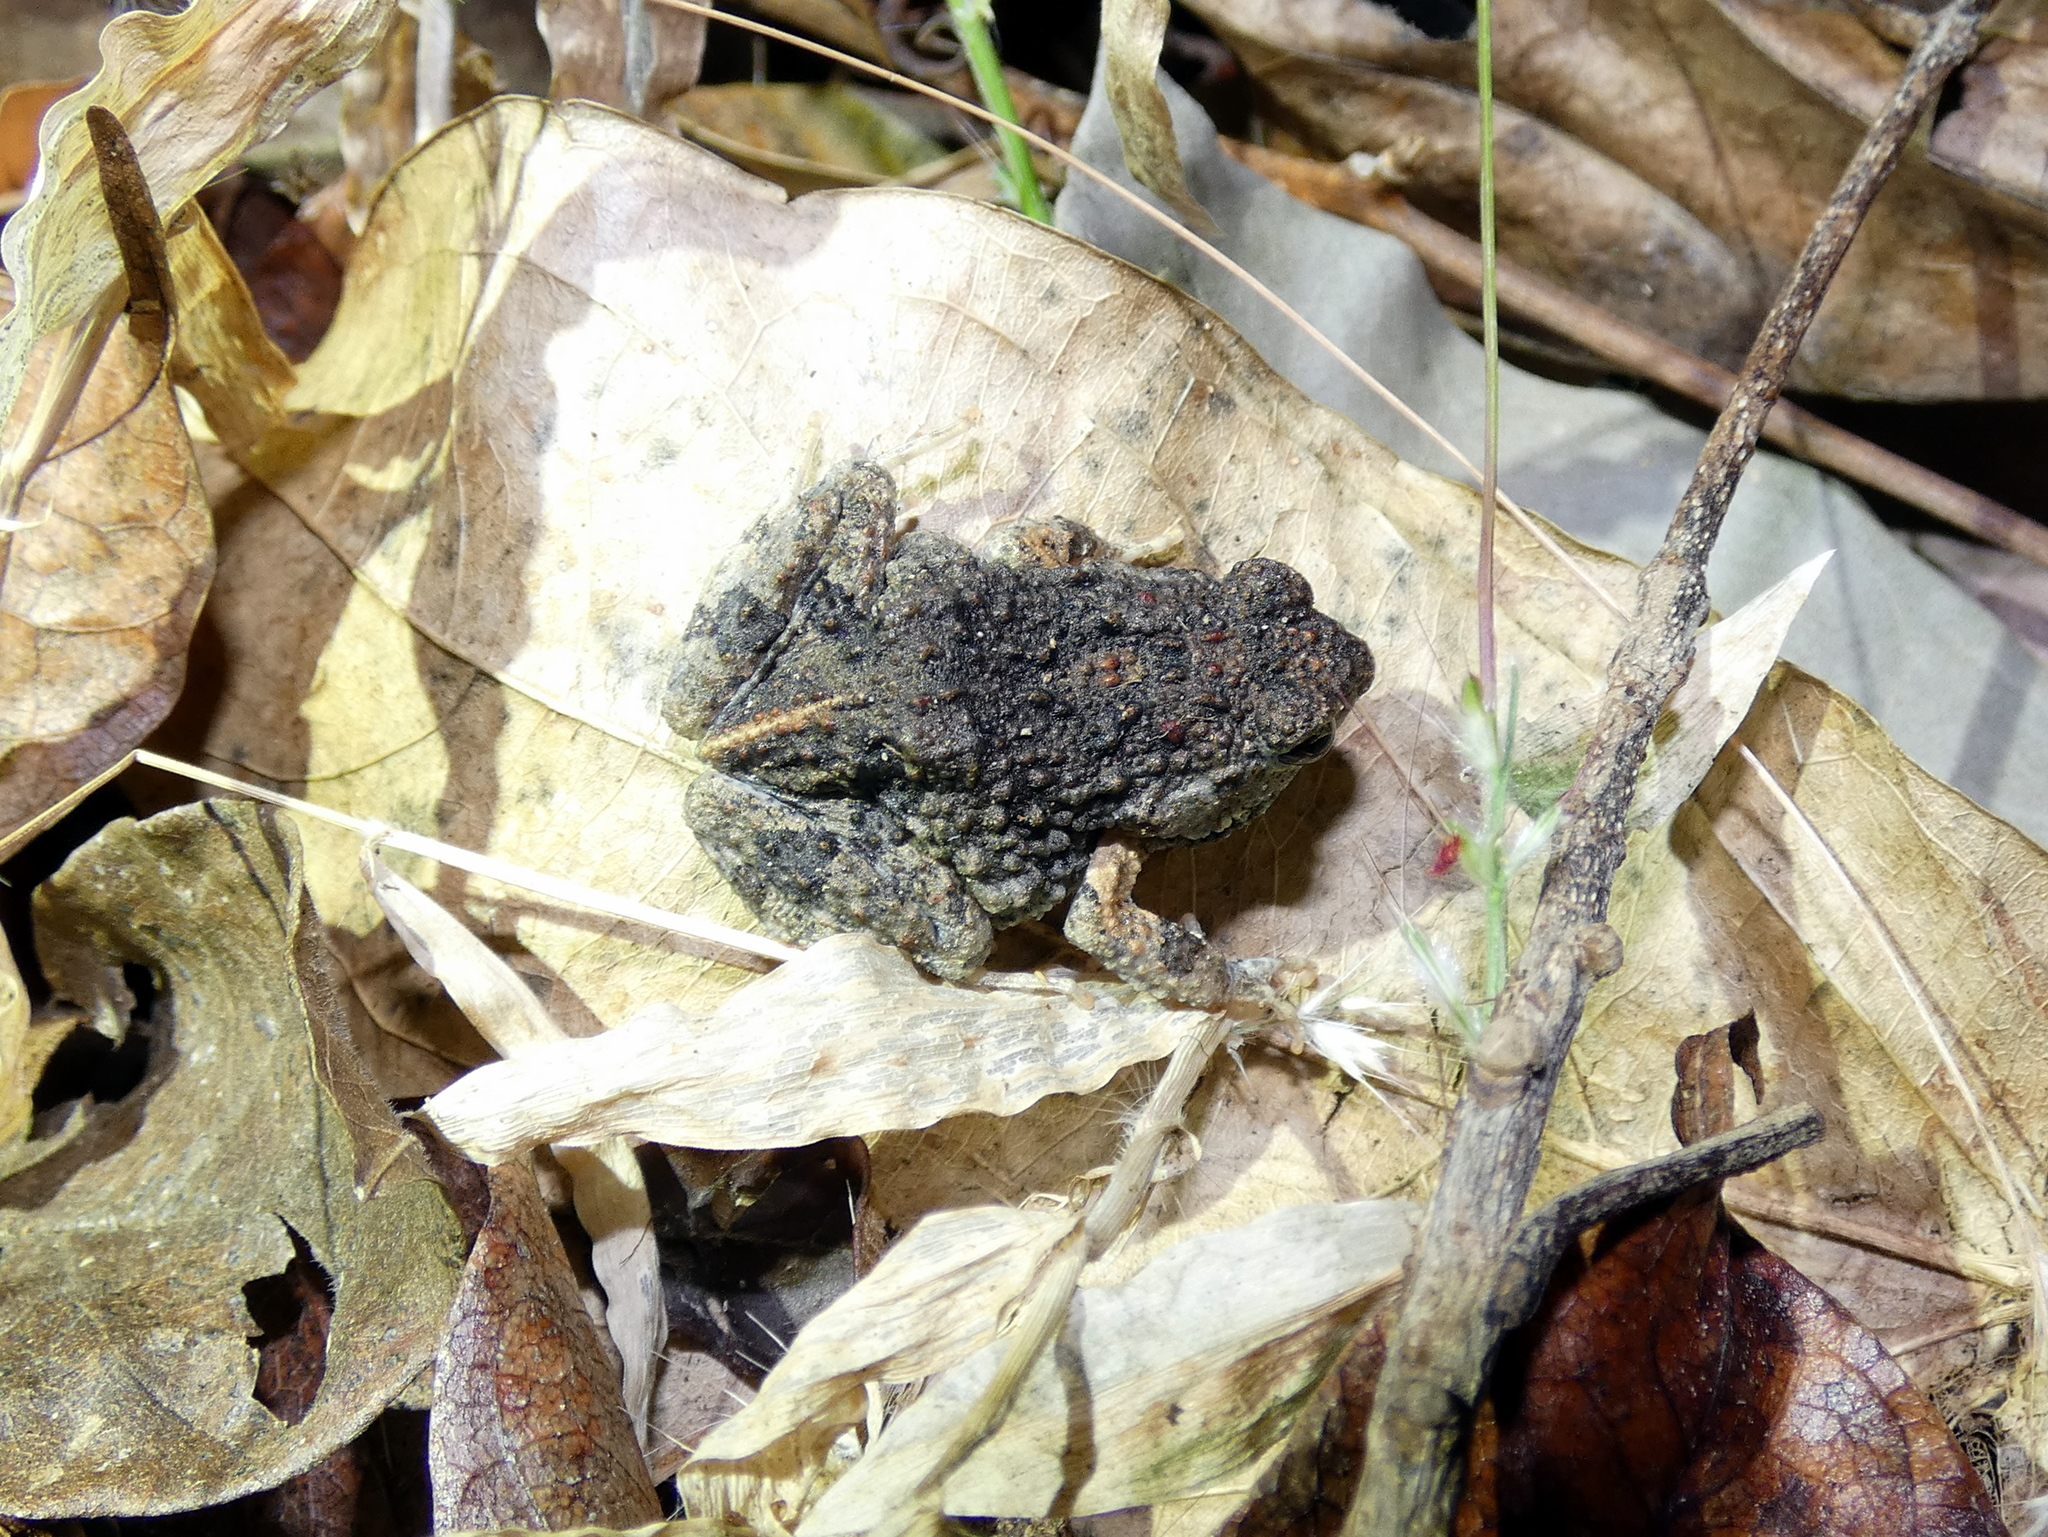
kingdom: Animalia
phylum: Chordata
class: Amphibia
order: Anura
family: Leptodactylidae
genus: Engystomops
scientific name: Engystomops pustulosus
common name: Tungara frog
